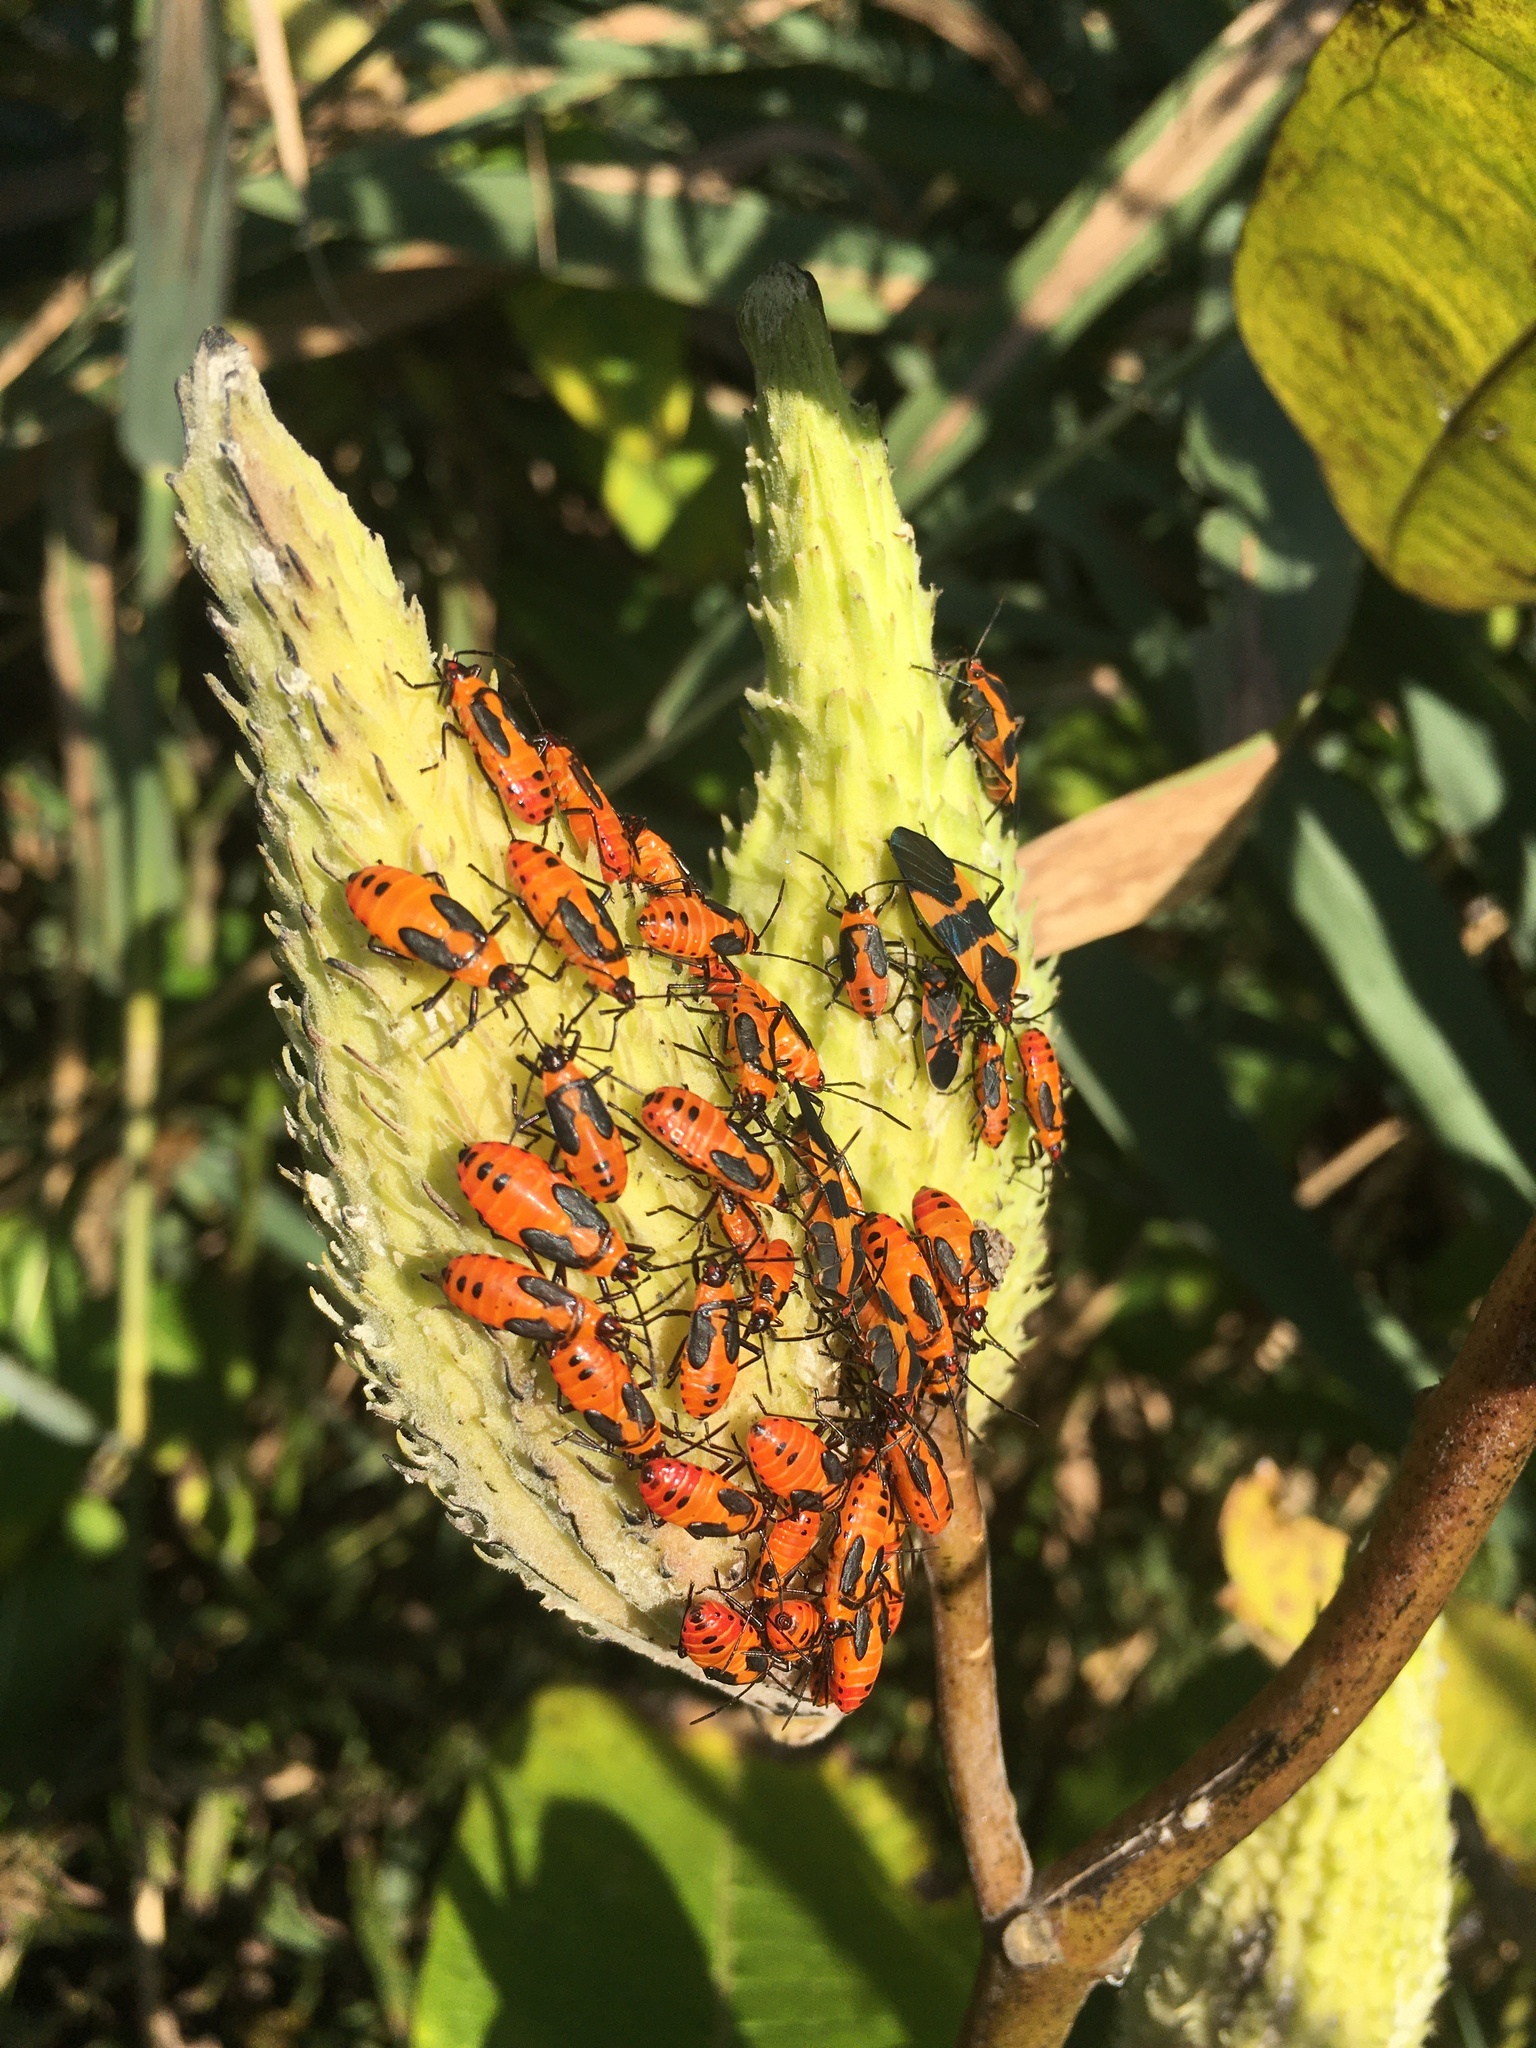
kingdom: Animalia
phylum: Arthropoda
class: Insecta
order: Hemiptera
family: Lygaeidae
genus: Oncopeltus
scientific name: Oncopeltus fasciatus
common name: Large milkweed bug
